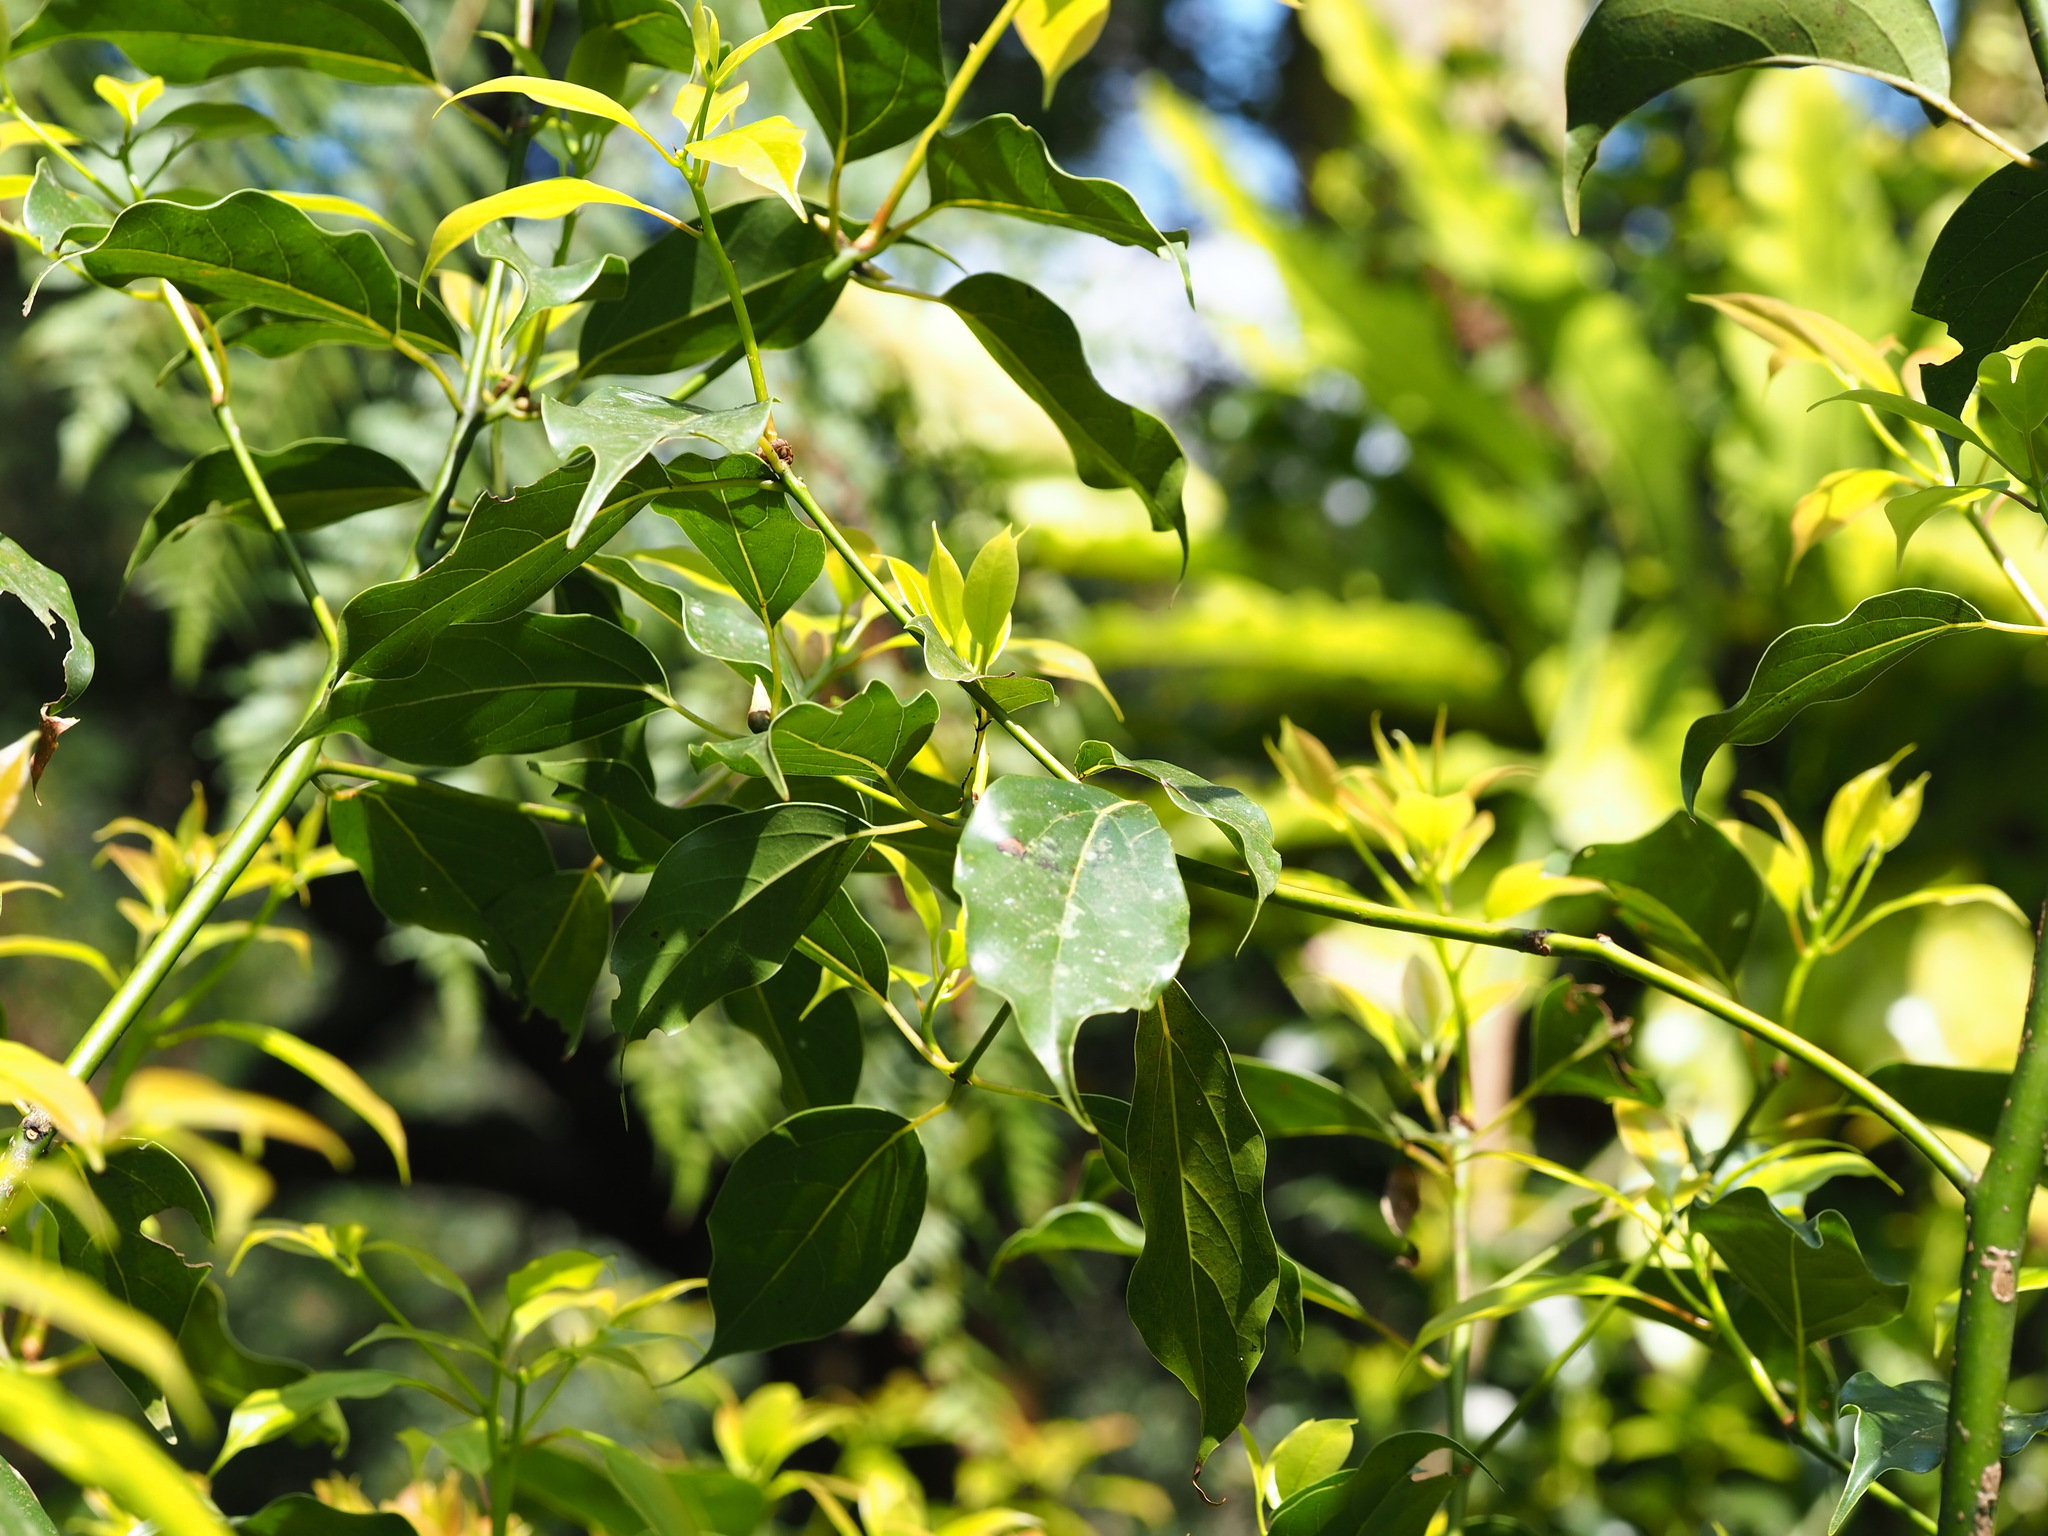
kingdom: Plantae
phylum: Tracheophyta
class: Magnoliopsida
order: Laurales
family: Lauraceae
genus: Cinnamomum
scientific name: Cinnamomum micranthum
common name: Chinese-sassafras
